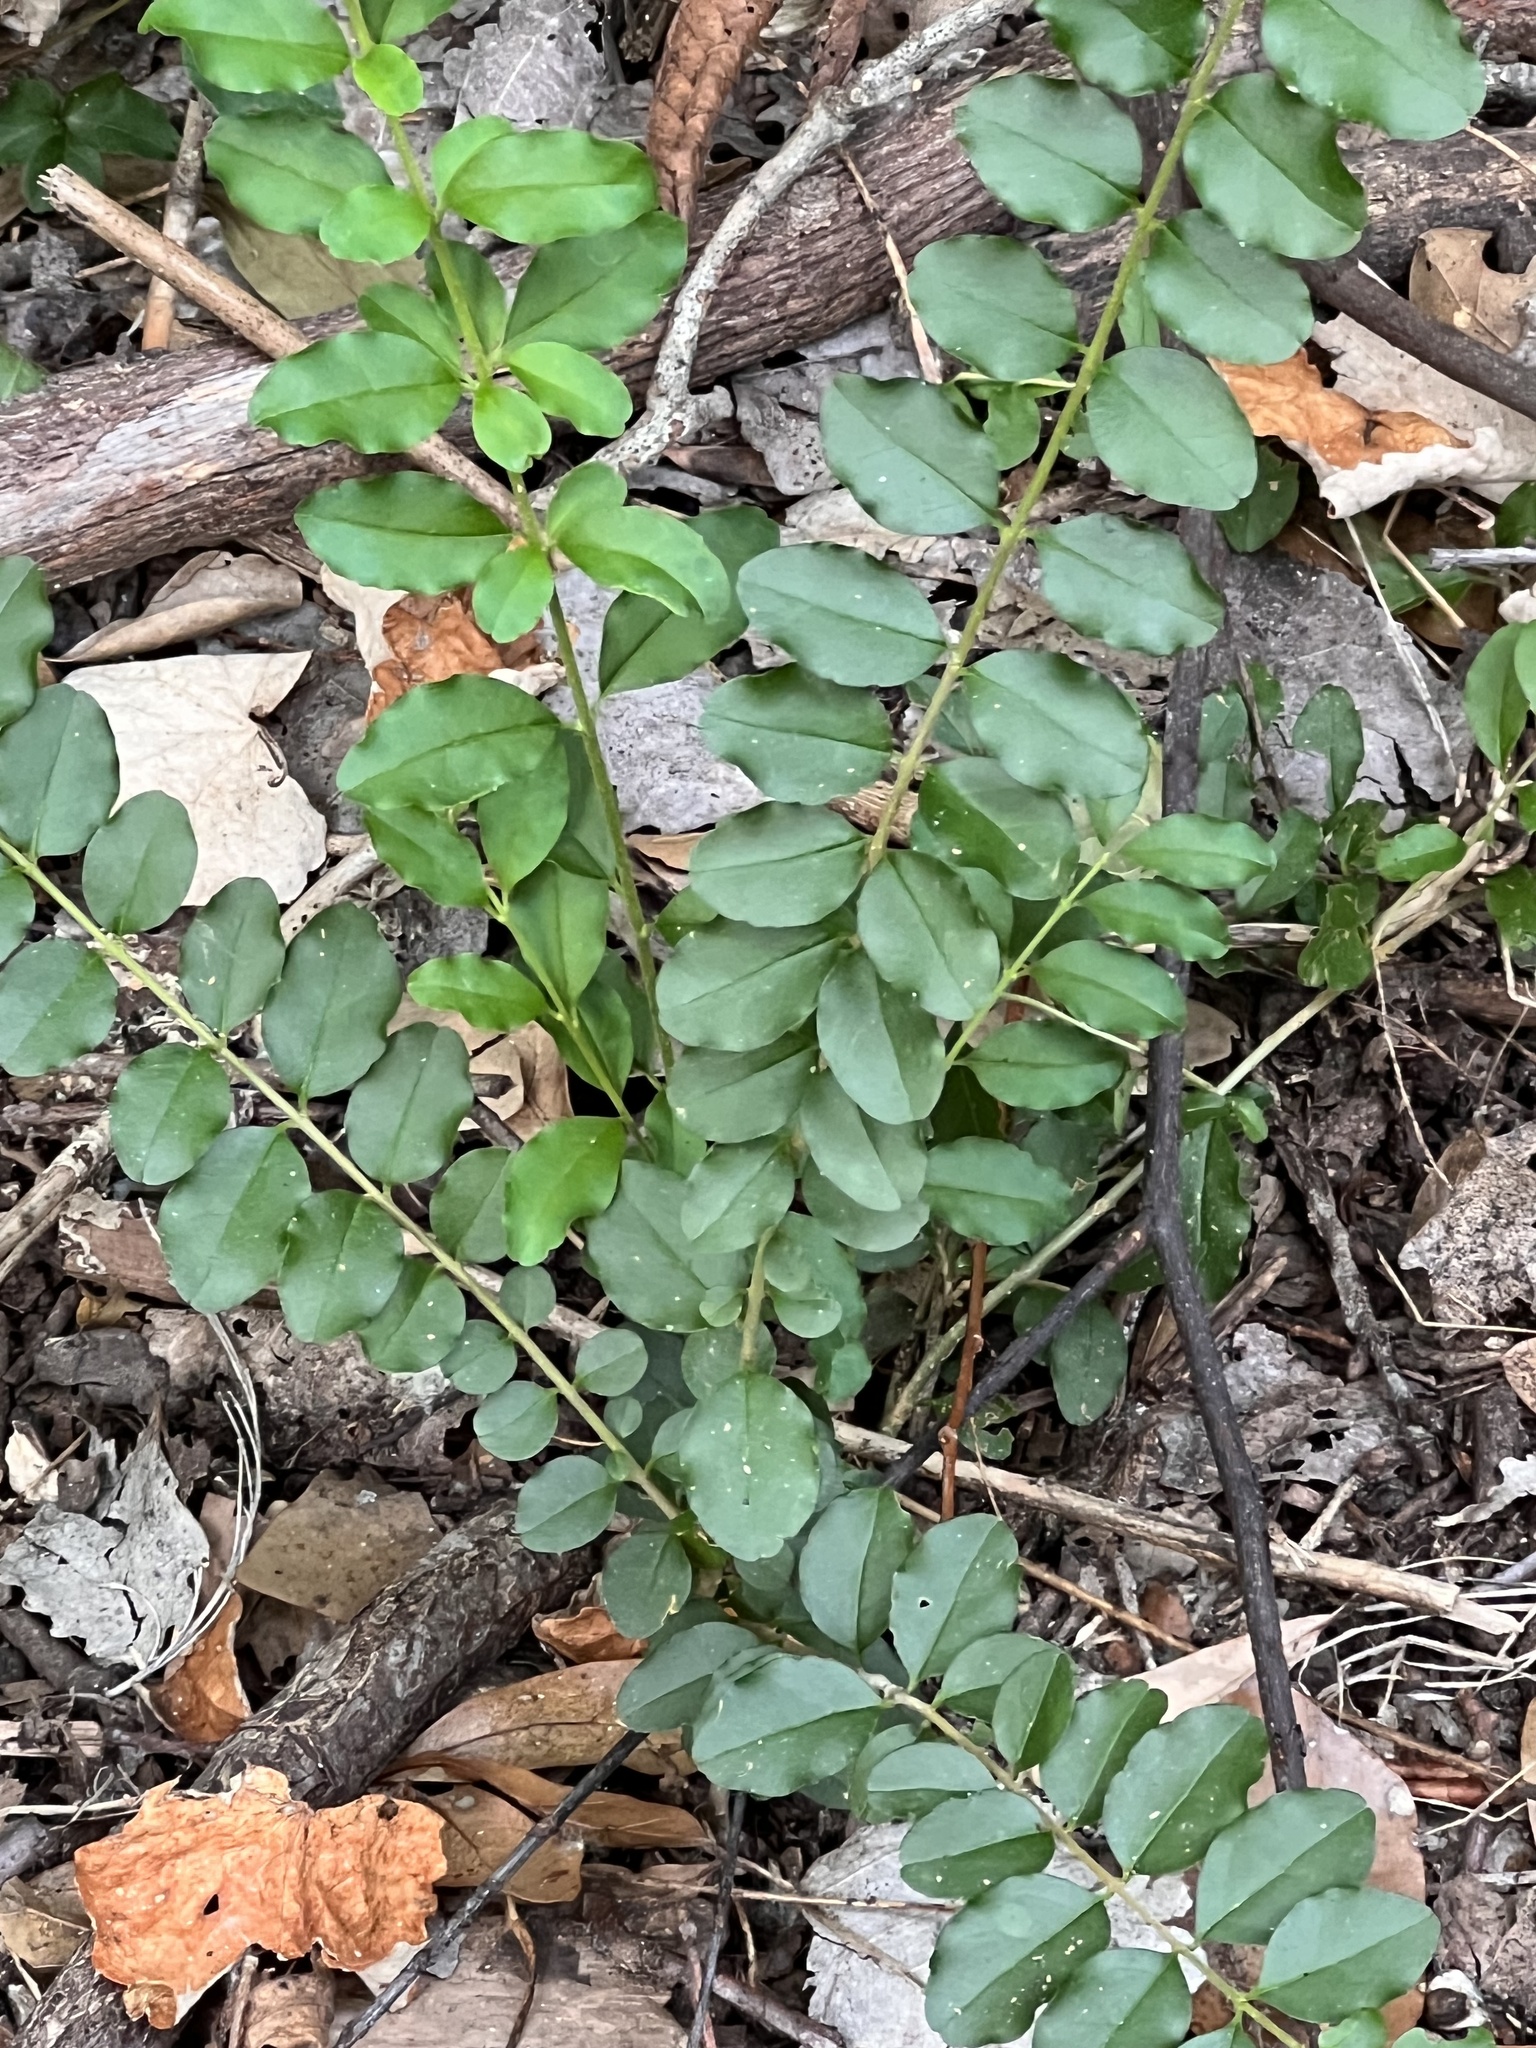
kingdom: Plantae
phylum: Tracheophyta
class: Magnoliopsida
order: Lamiales
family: Oleaceae
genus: Ligustrum
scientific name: Ligustrum sinense
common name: Chinese privet
